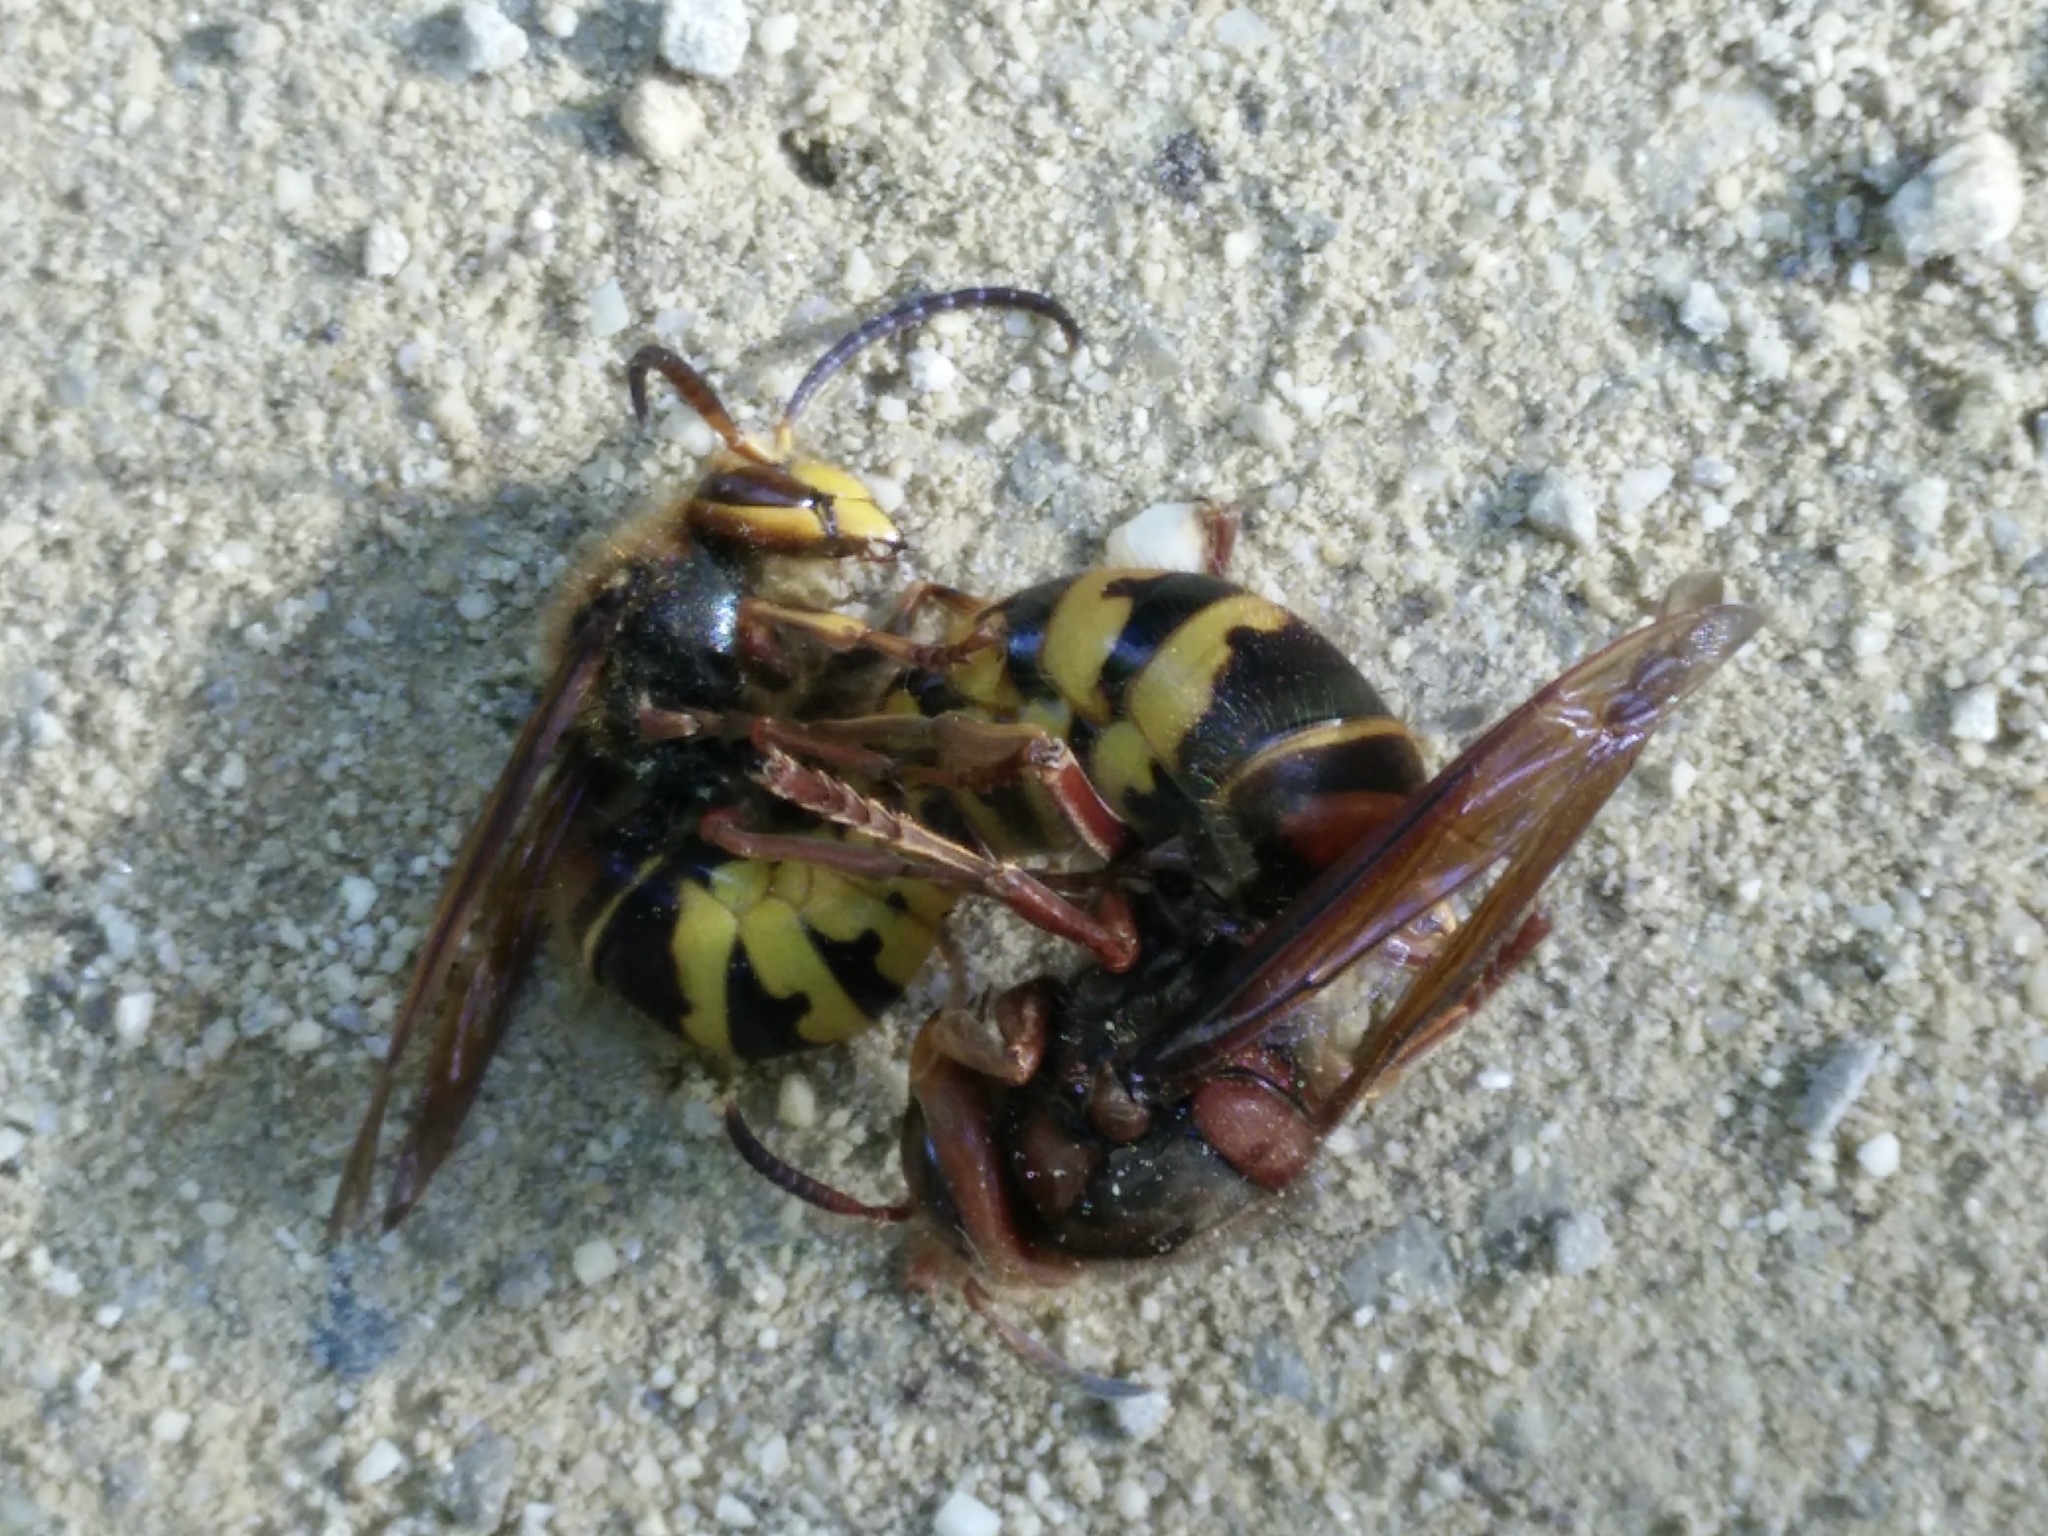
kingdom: Animalia
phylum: Arthropoda
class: Insecta
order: Hymenoptera
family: Vespidae
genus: Vespa
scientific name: Vespa crabro
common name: Hornet
